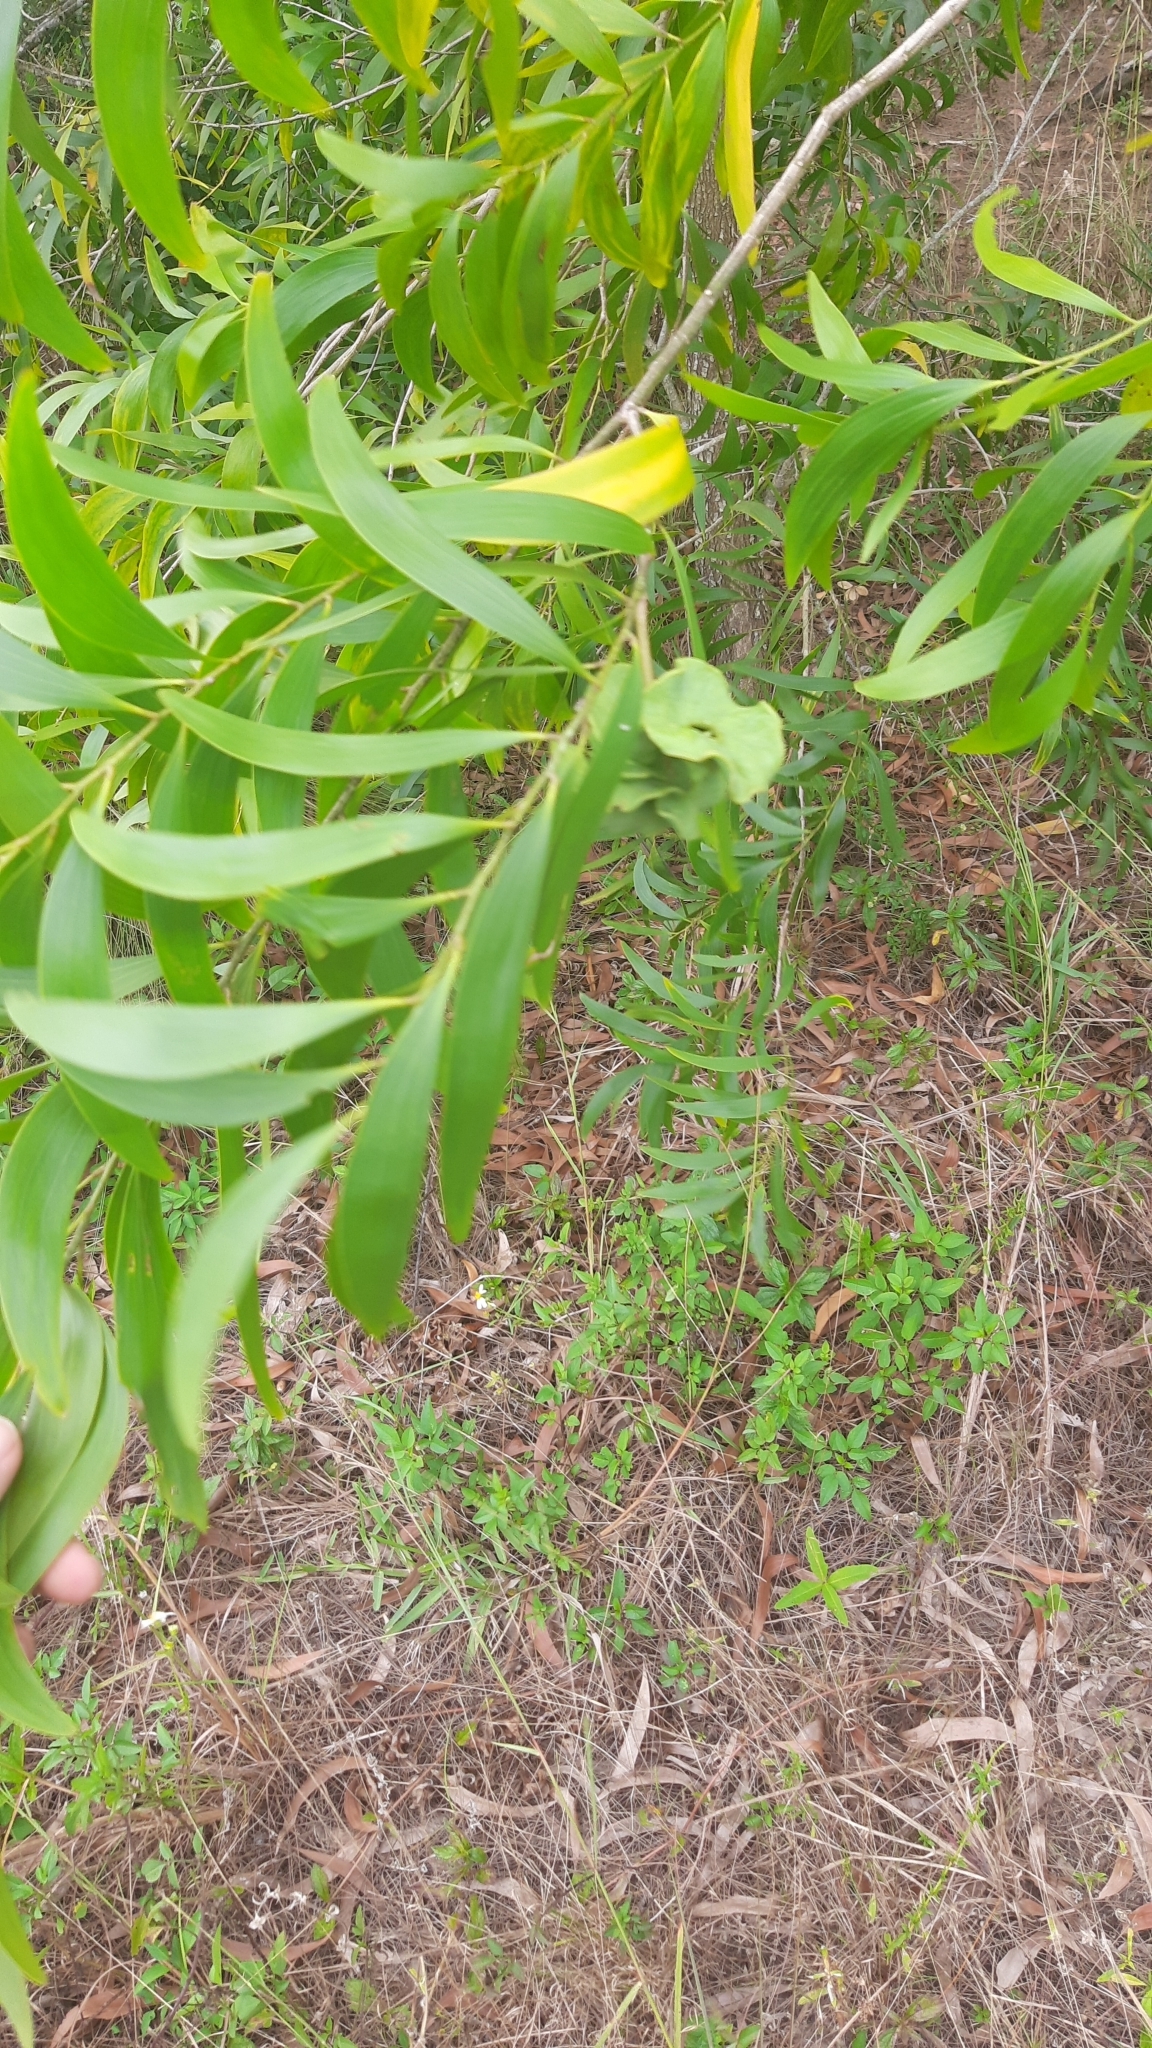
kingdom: Plantae
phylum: Tracheophyta
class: Magnoliopsida
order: Fabales
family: Fabaceae
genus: Acacia
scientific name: Acacia auriculiformis
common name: Earleaf acacia
